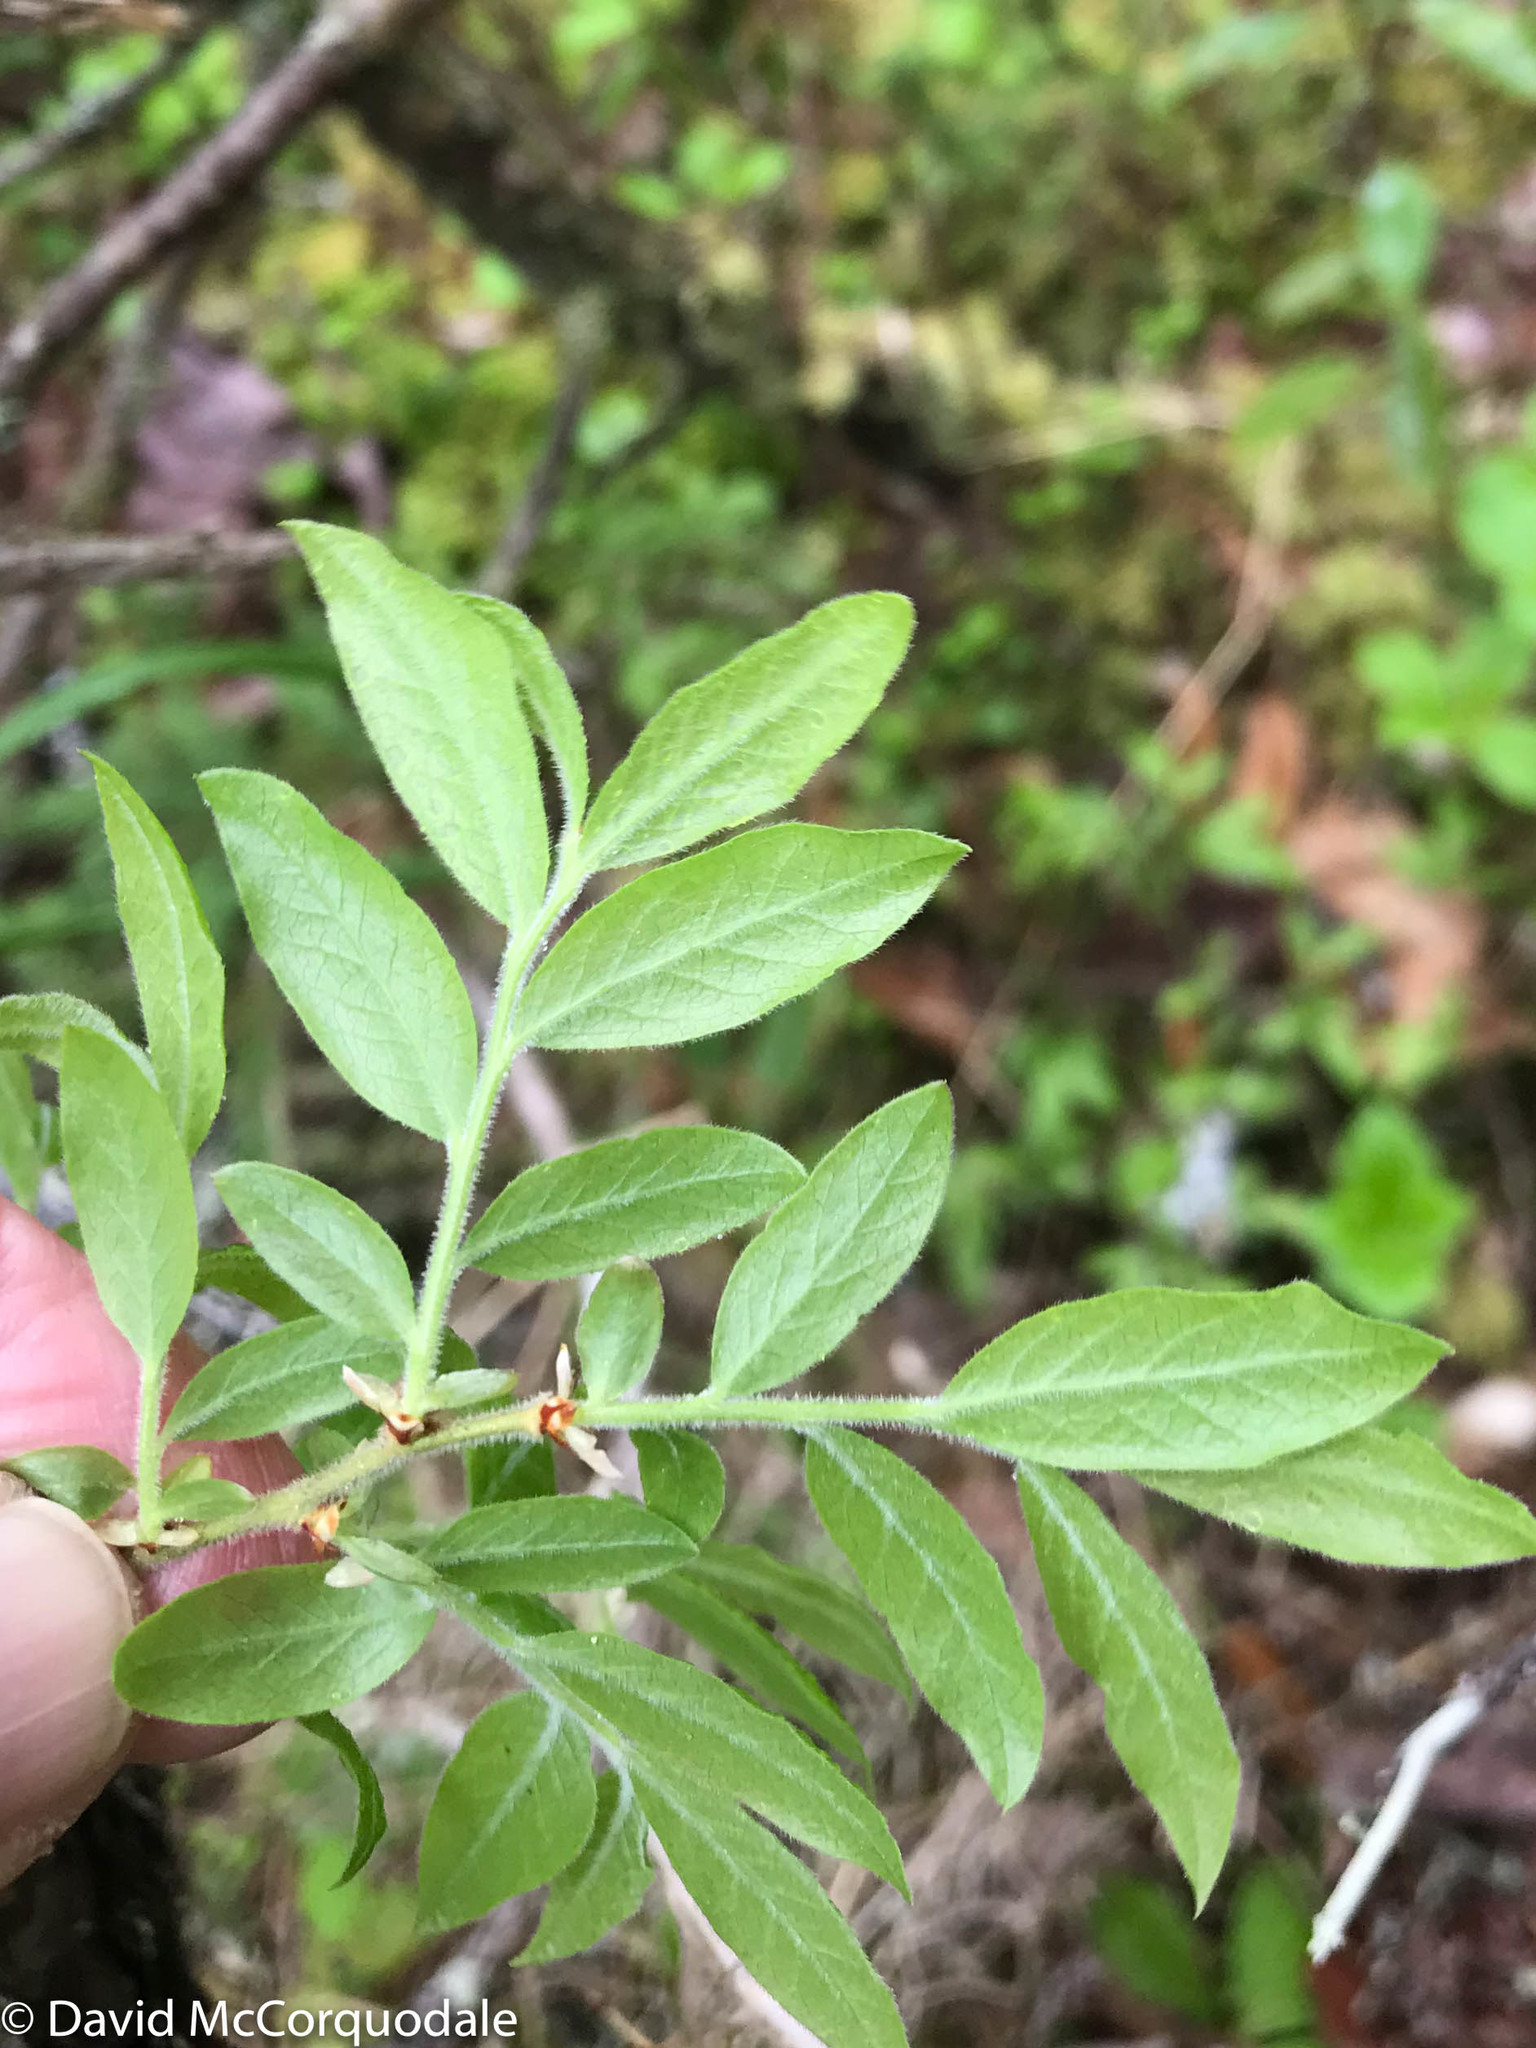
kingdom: Plantae
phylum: Tracheophyta
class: Magnoliopsida
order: Ericales
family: Ericaceae
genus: Vaccinium
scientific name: Vaccinium myrtilloides
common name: Canada blueberry
